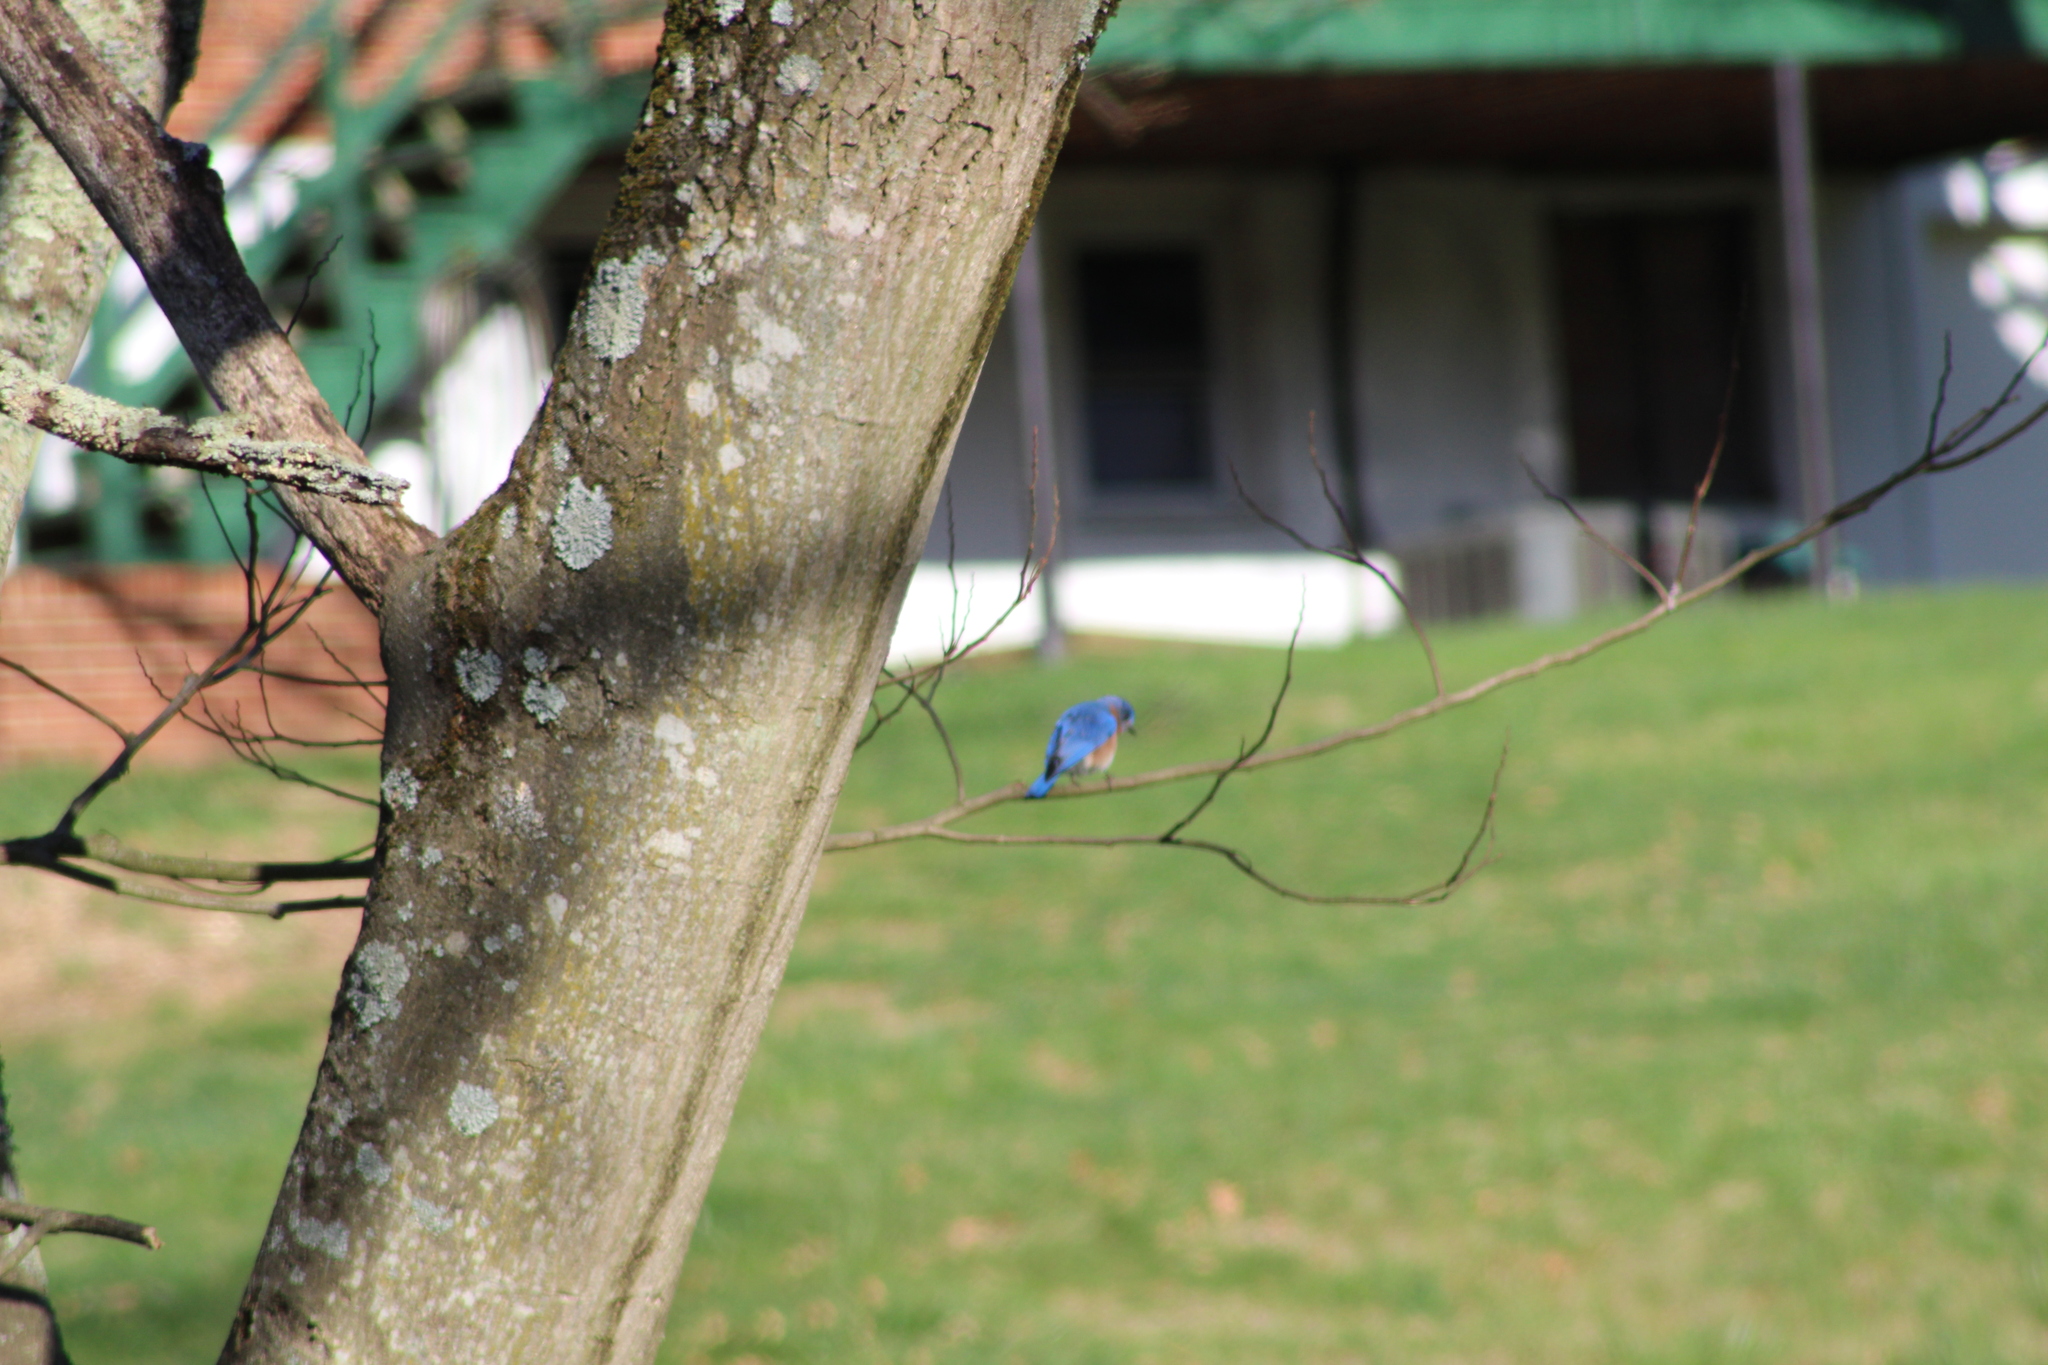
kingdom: Animalia
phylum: Chordata
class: Aves
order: Passeriformes
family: Turdidae
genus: Sialia
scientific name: Sialia sialis
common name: Eastern bluebird
